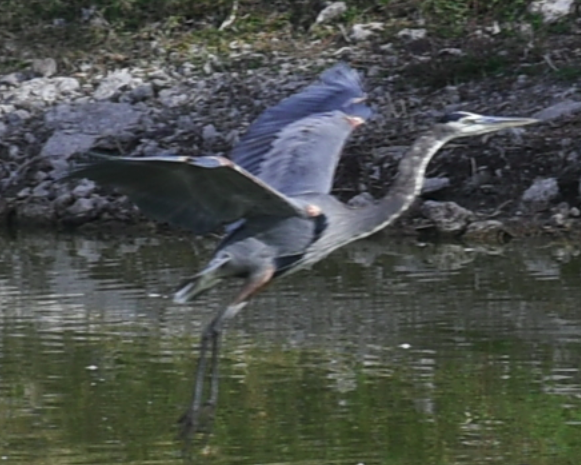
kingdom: Animalia
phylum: Chordata
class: Aves
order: Pelecaniformes
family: Ardeidae
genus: Ardea
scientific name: Ardea herodias
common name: Great blue heron
